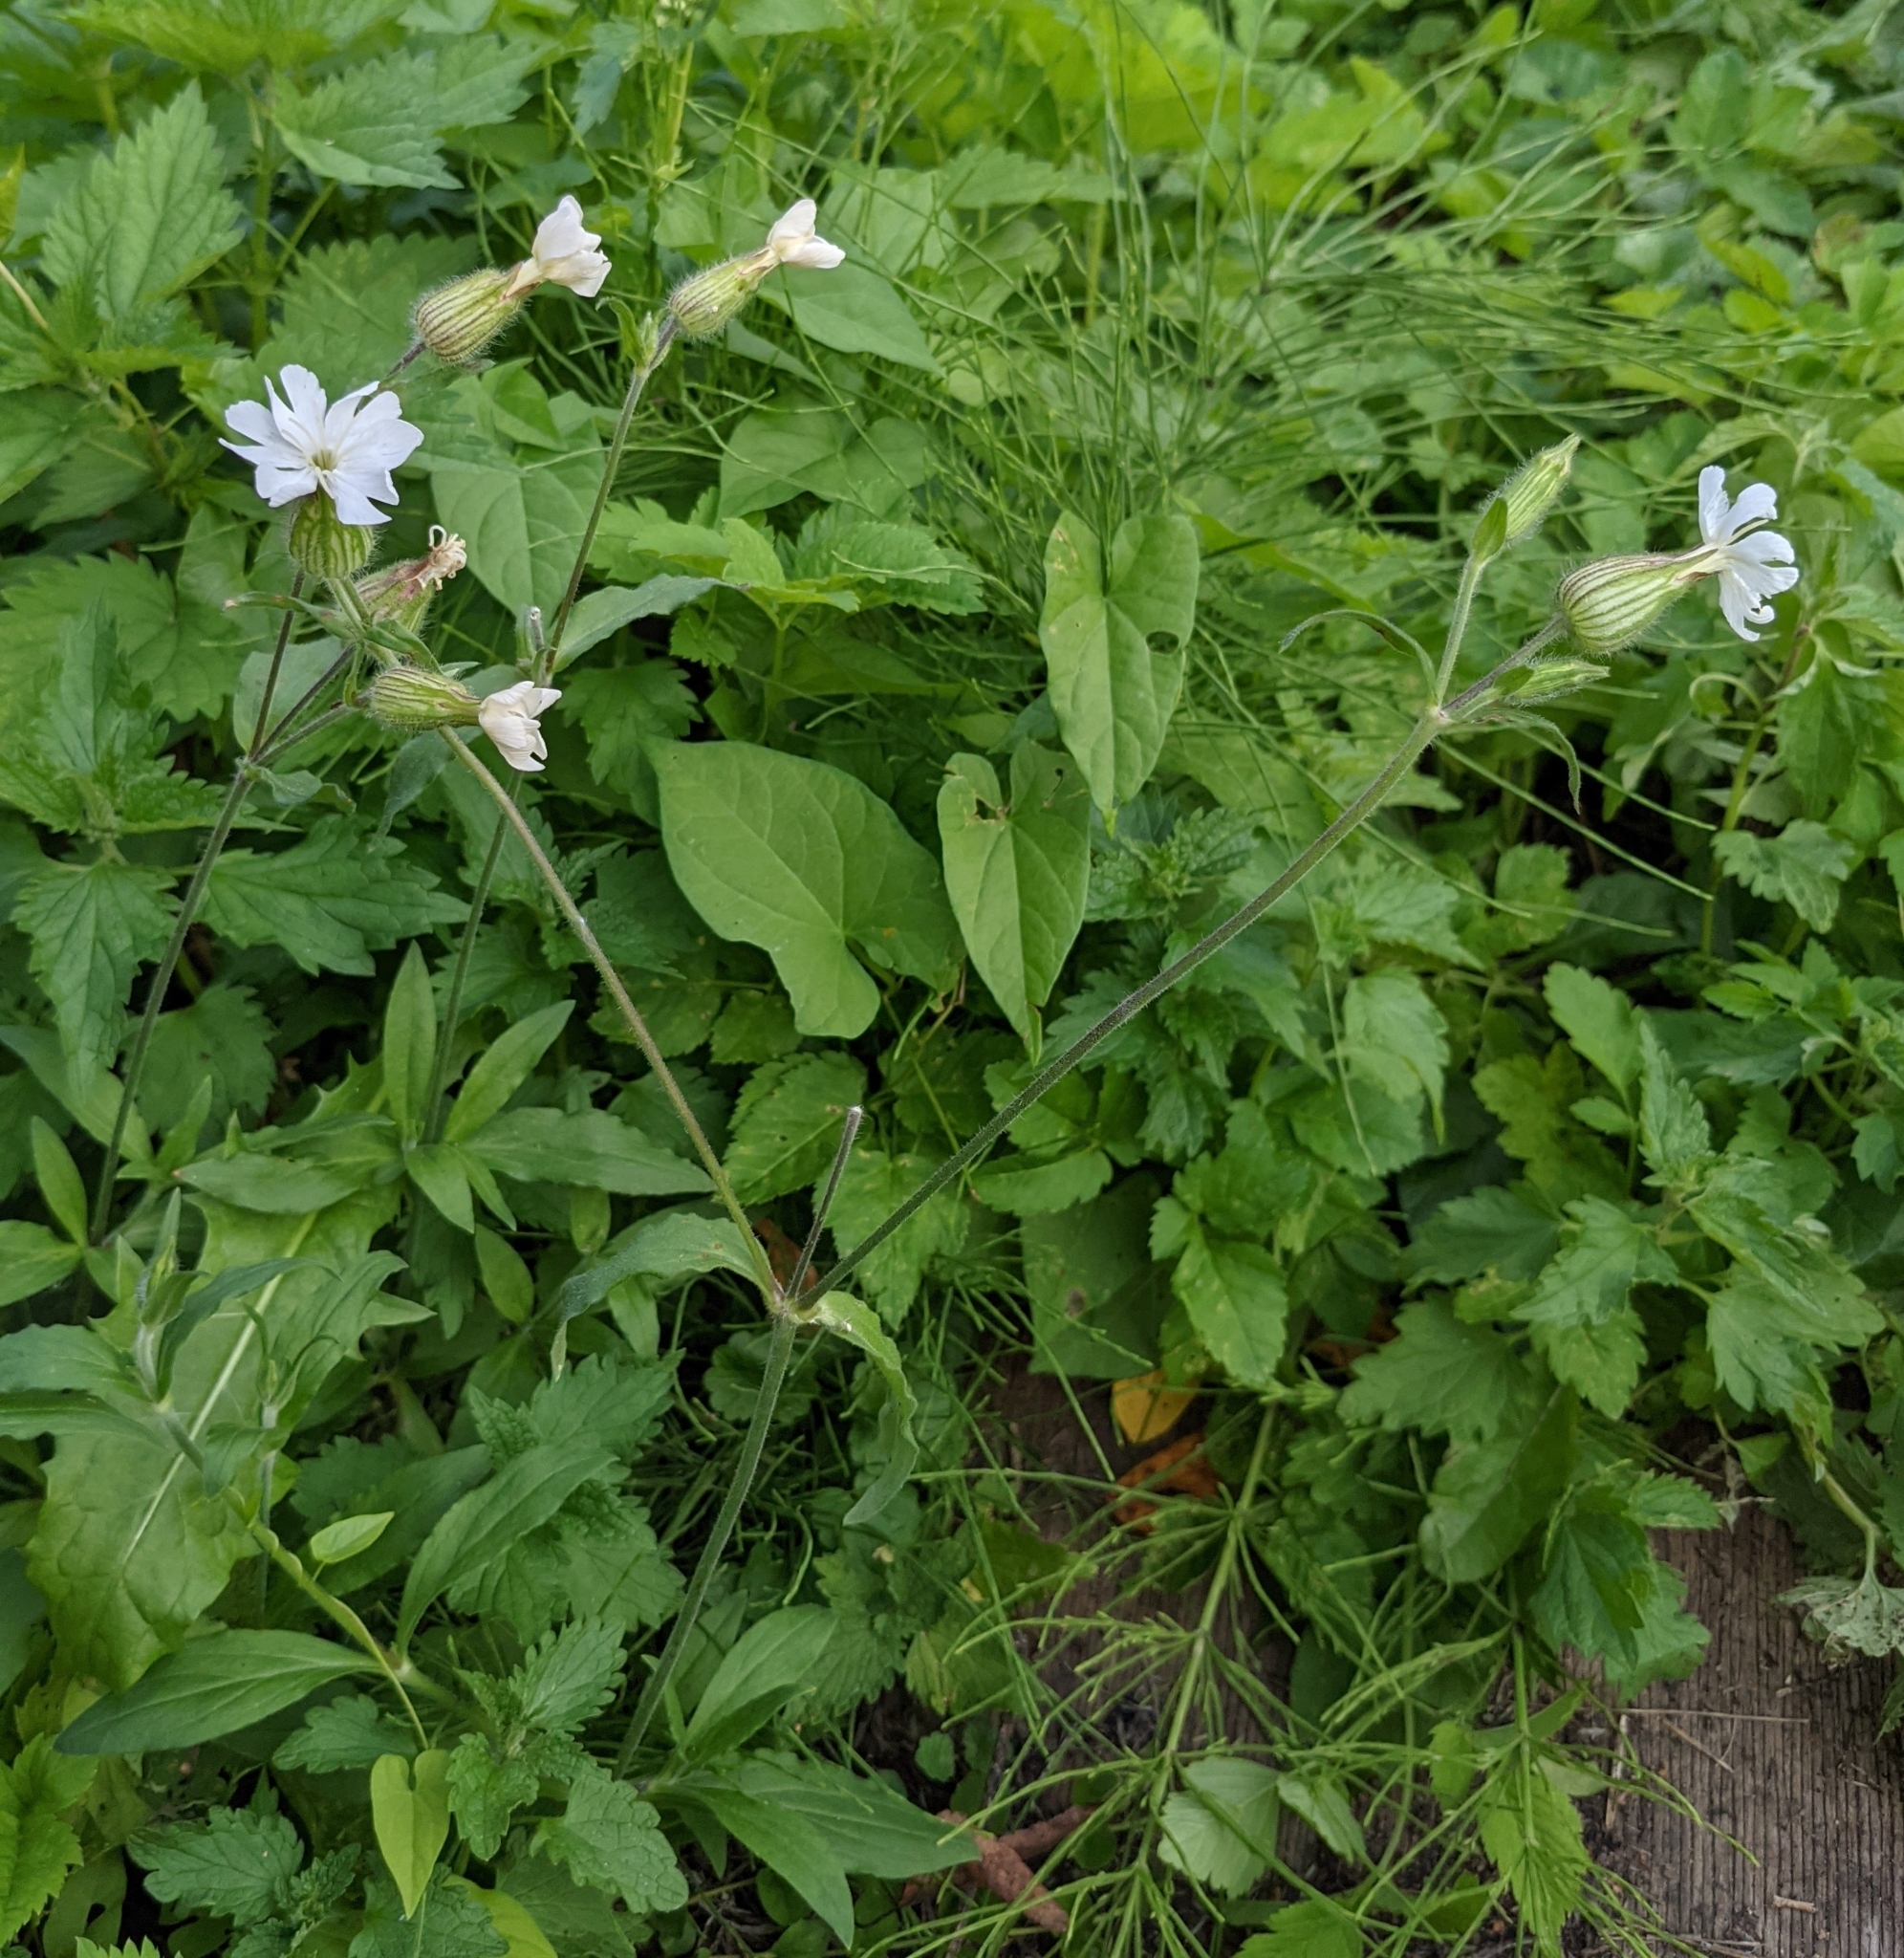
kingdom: Plantae
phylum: Tracheophyta
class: Magnoliopsida
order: Caryophyllales
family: Caryophyllaceae
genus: Silene
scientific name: Silene latifolia
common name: White campion
